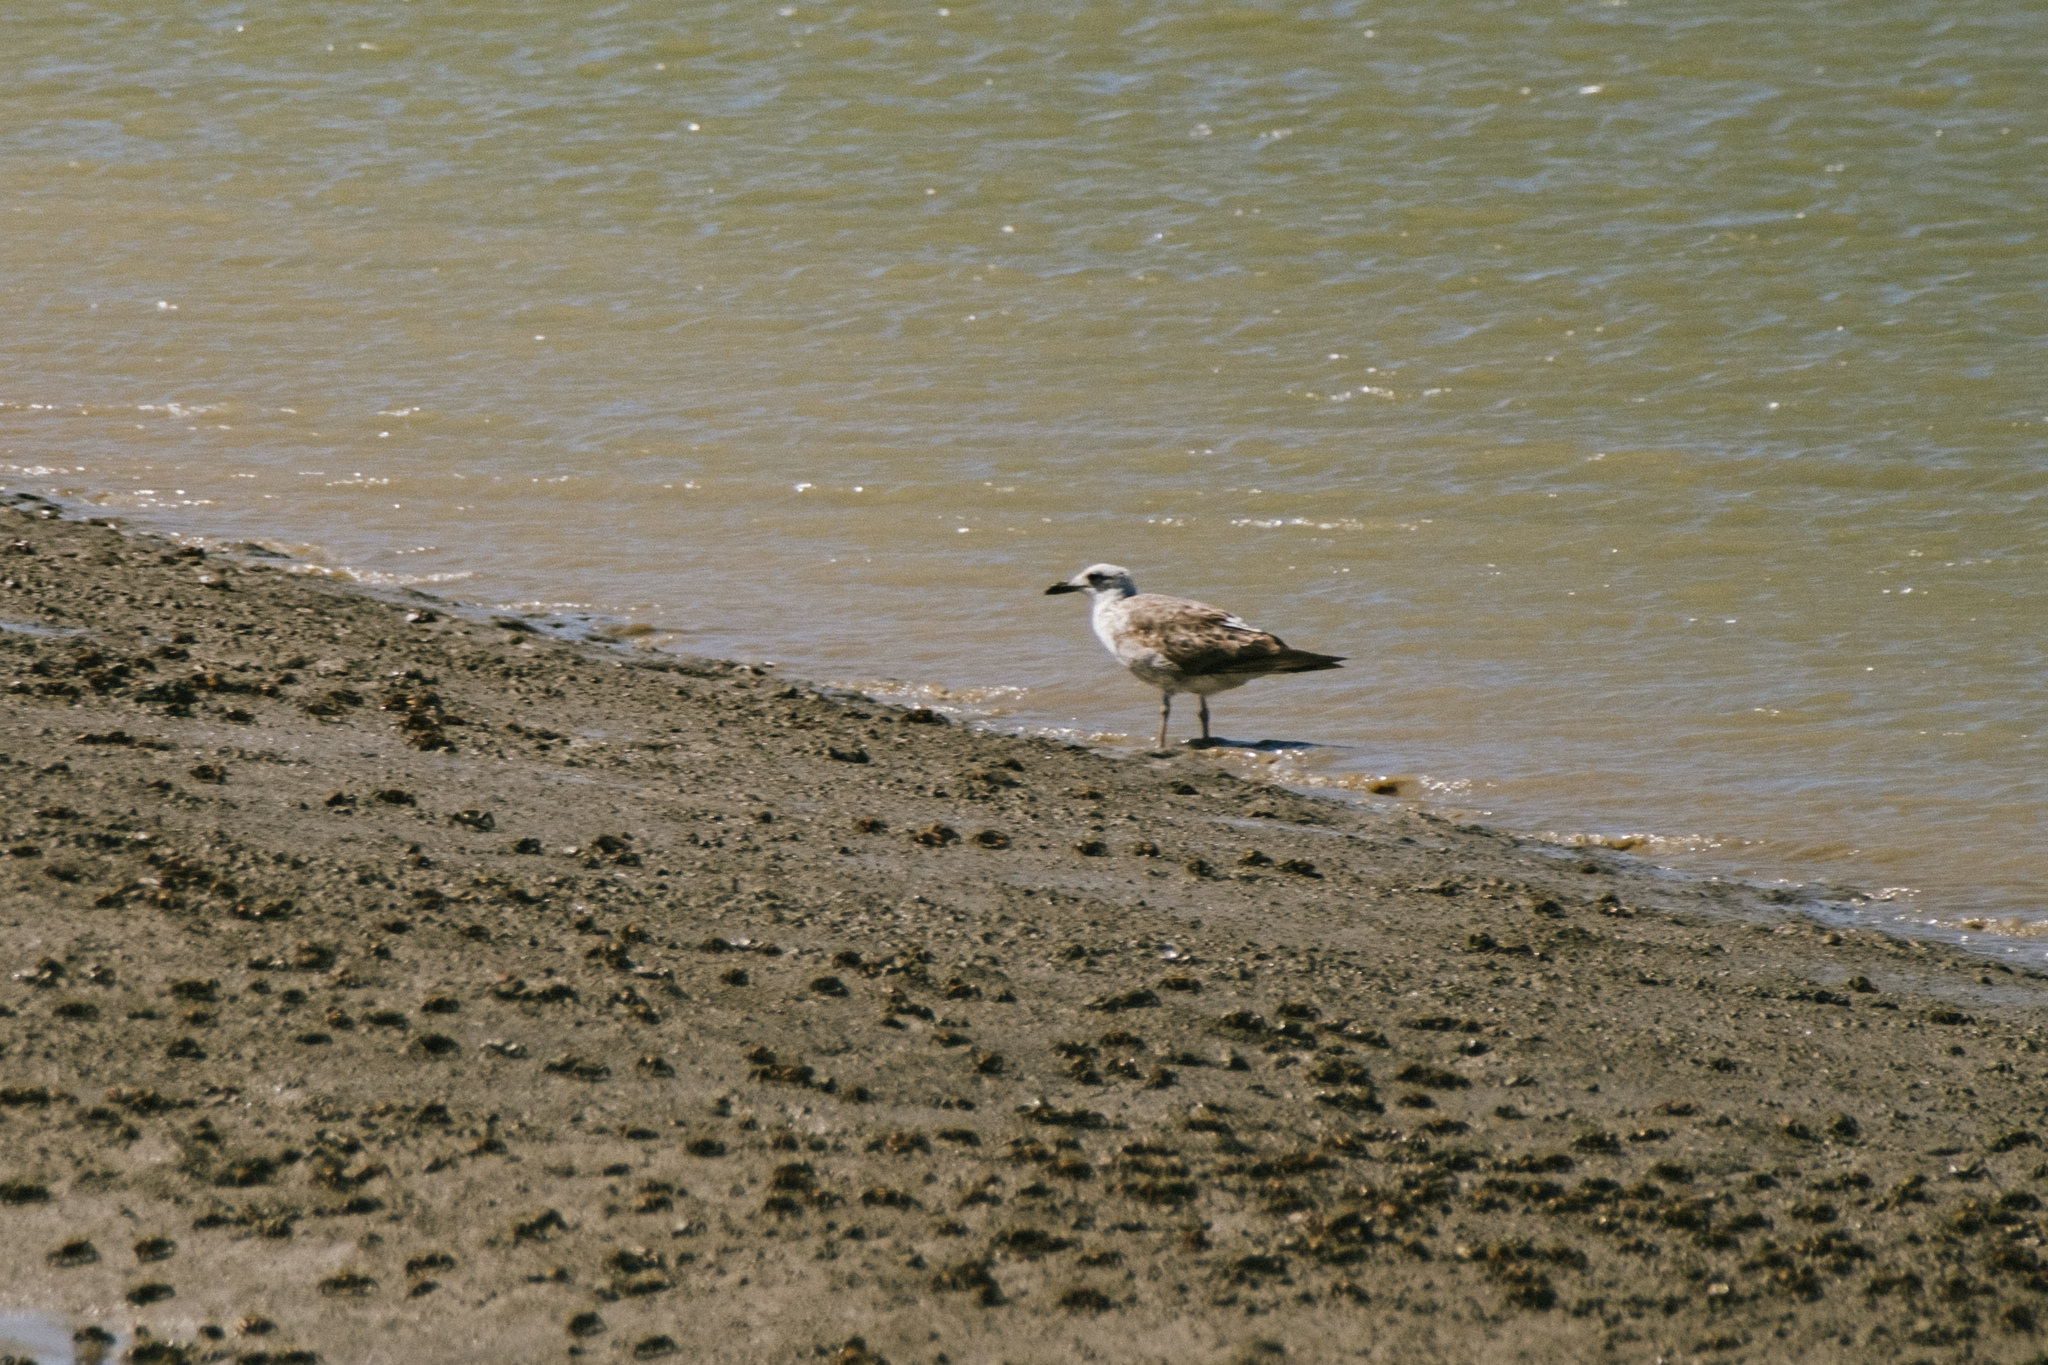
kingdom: Animalia
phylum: Chordata
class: Aves
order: Charadriiformes
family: Laridae
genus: Larus
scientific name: Larus michahellis
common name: Yellow-legged gull
